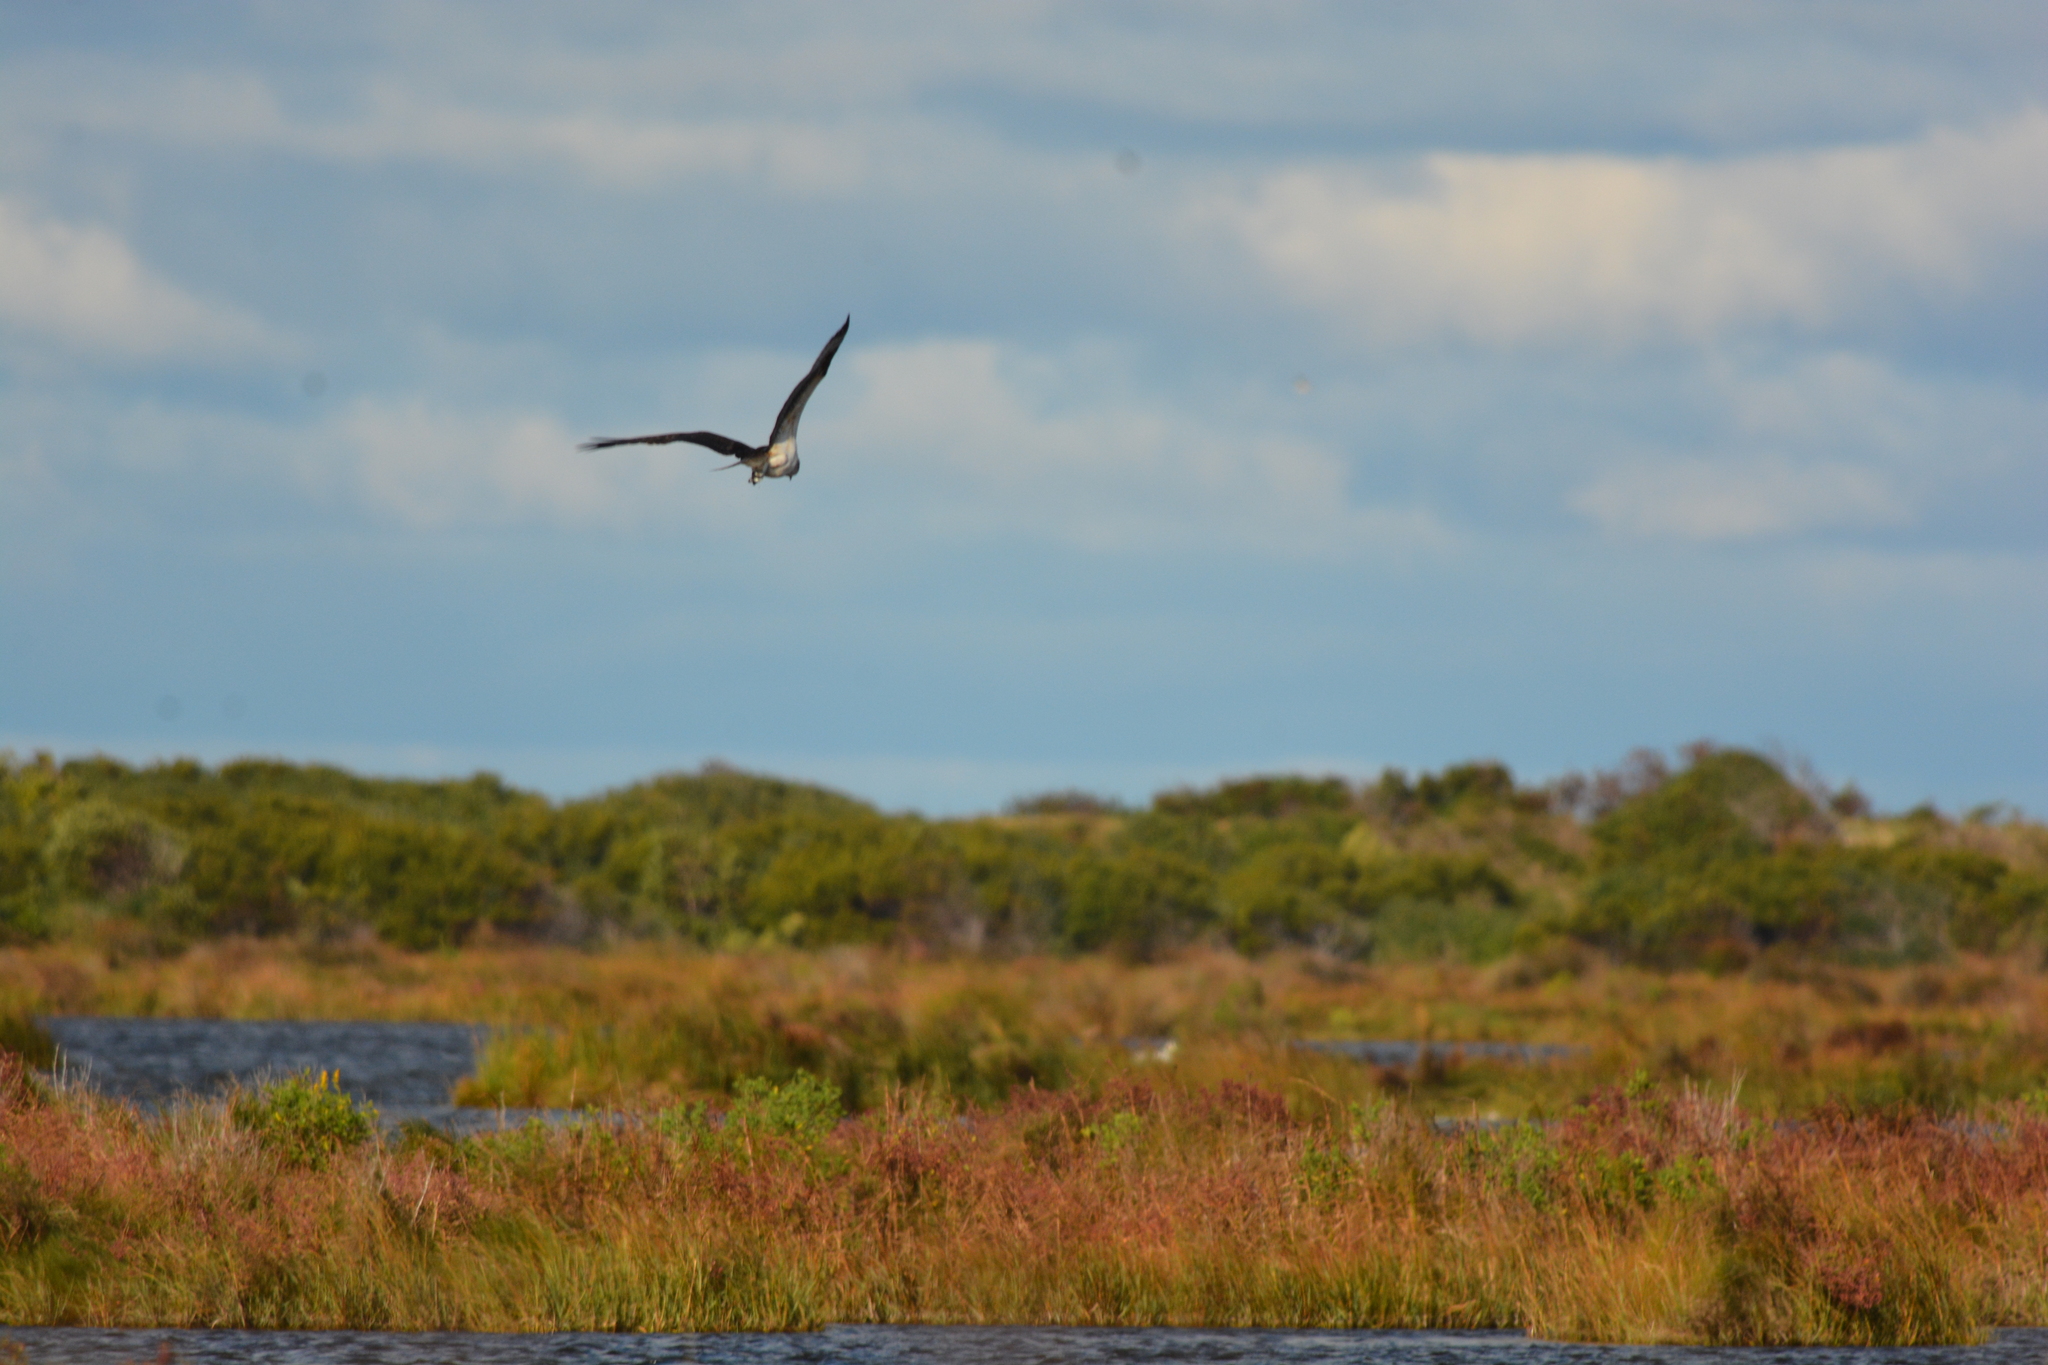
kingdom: Animalia
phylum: Chordata
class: Aves
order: Accipitriformes
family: Pandionidae
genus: Pandion
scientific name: Pandion haliaetus
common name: Osprey
